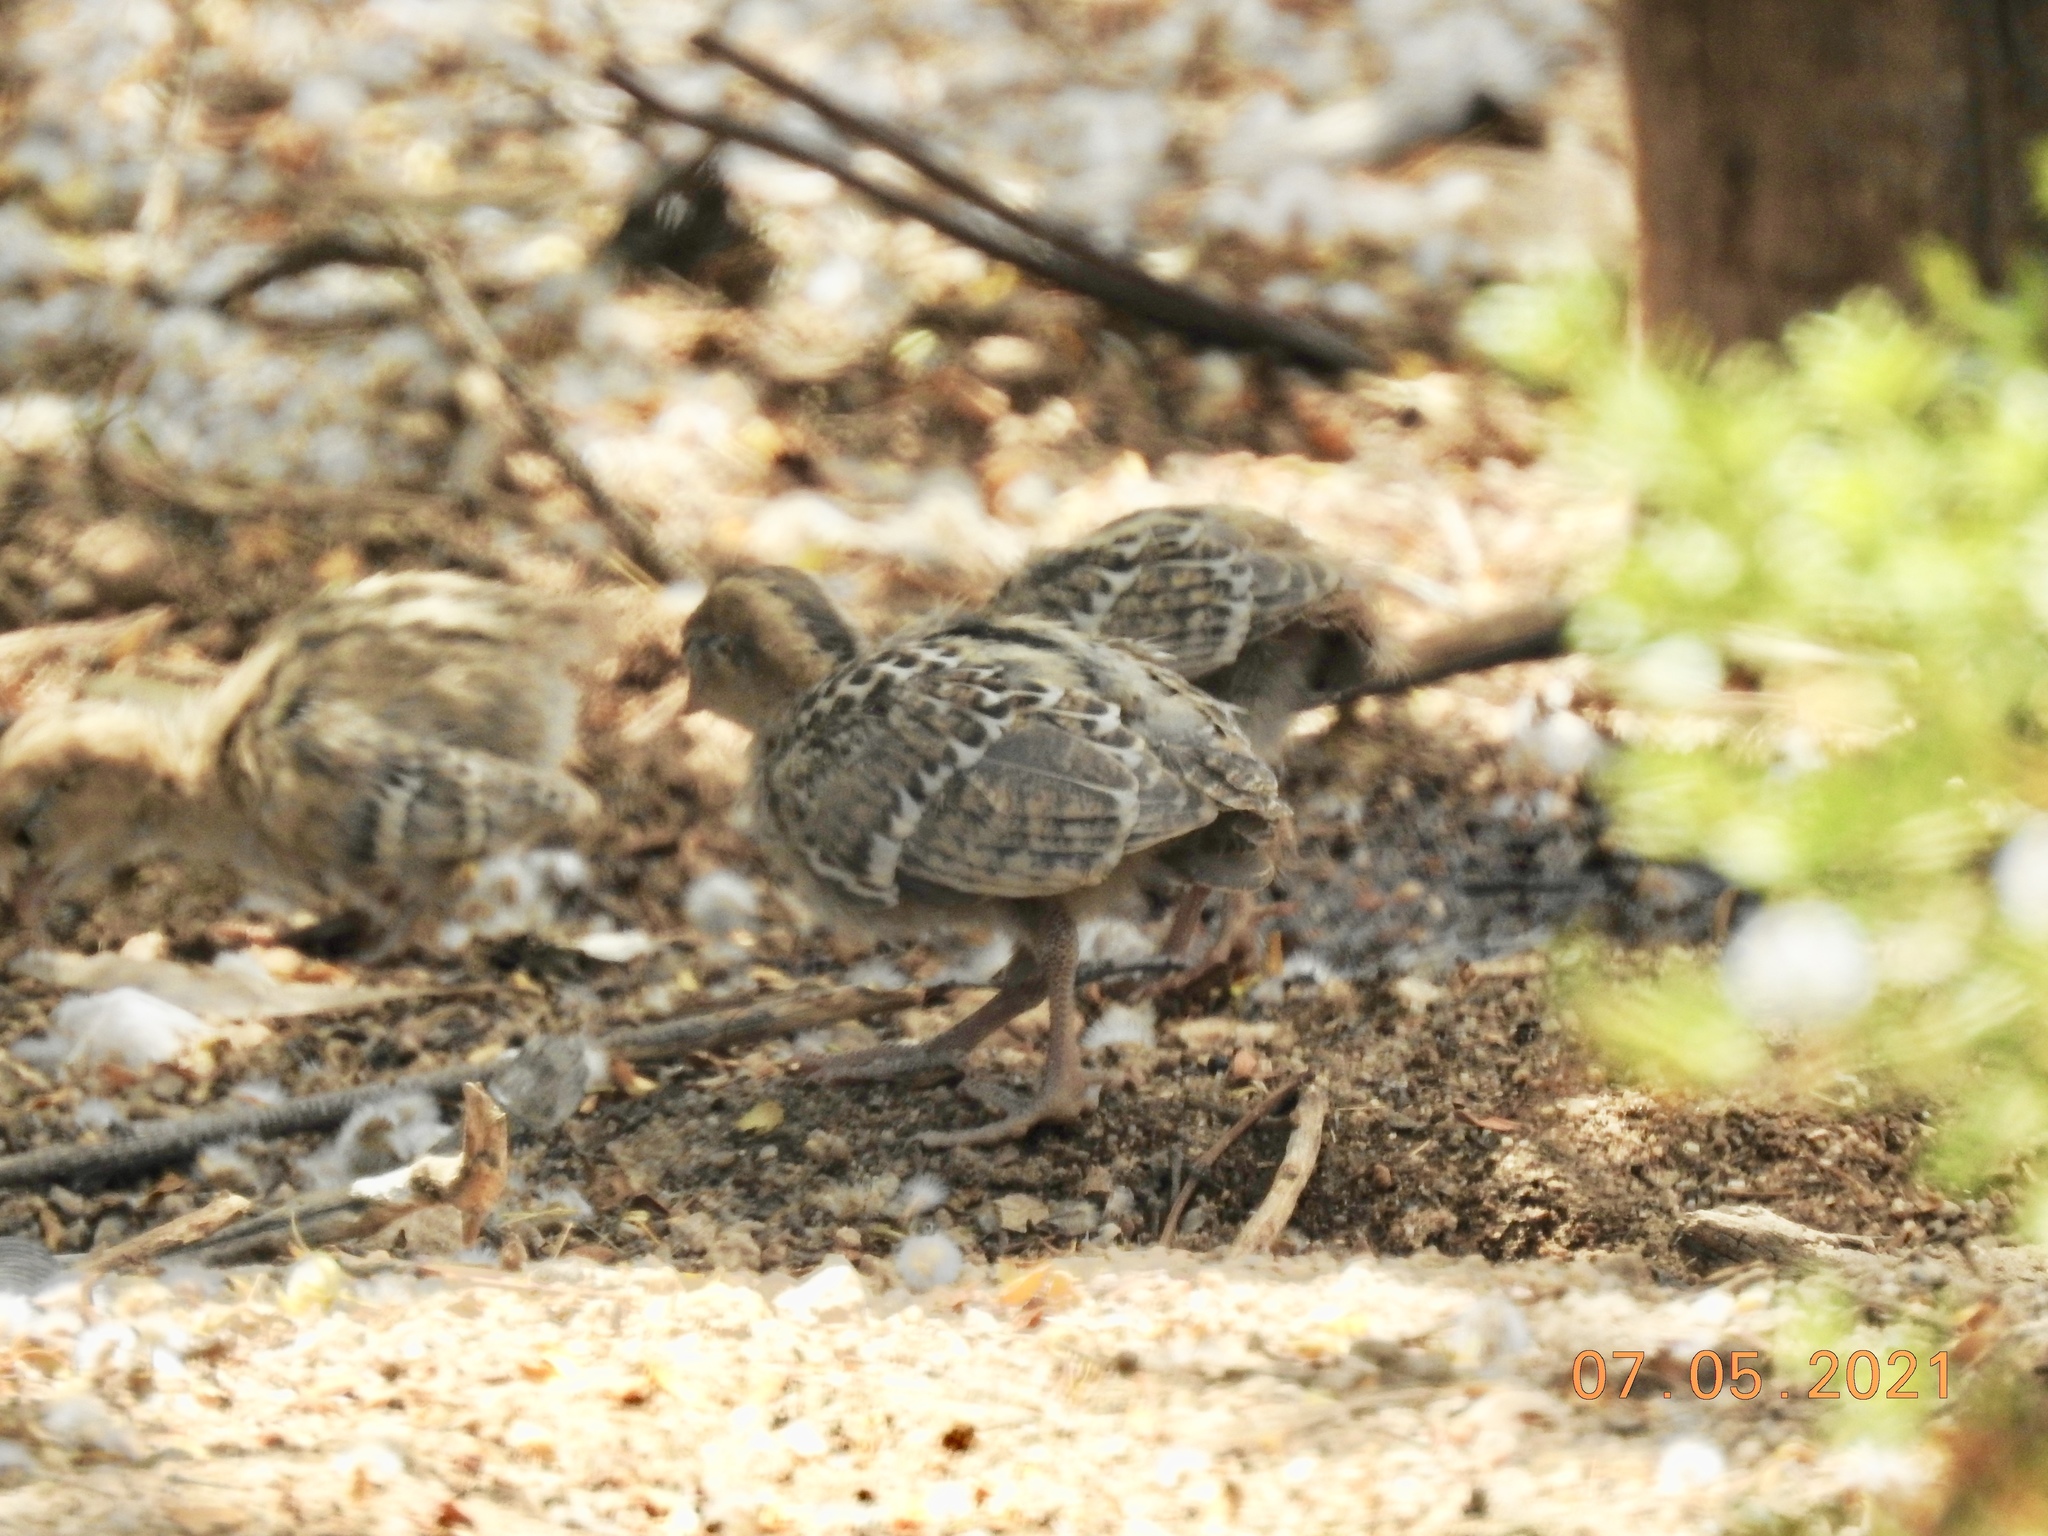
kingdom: Animalia
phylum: Chordata
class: Aves
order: Galliformes
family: Odontophoridae
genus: Callipepla
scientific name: Callipepla gambelii
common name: Gambel's quail
